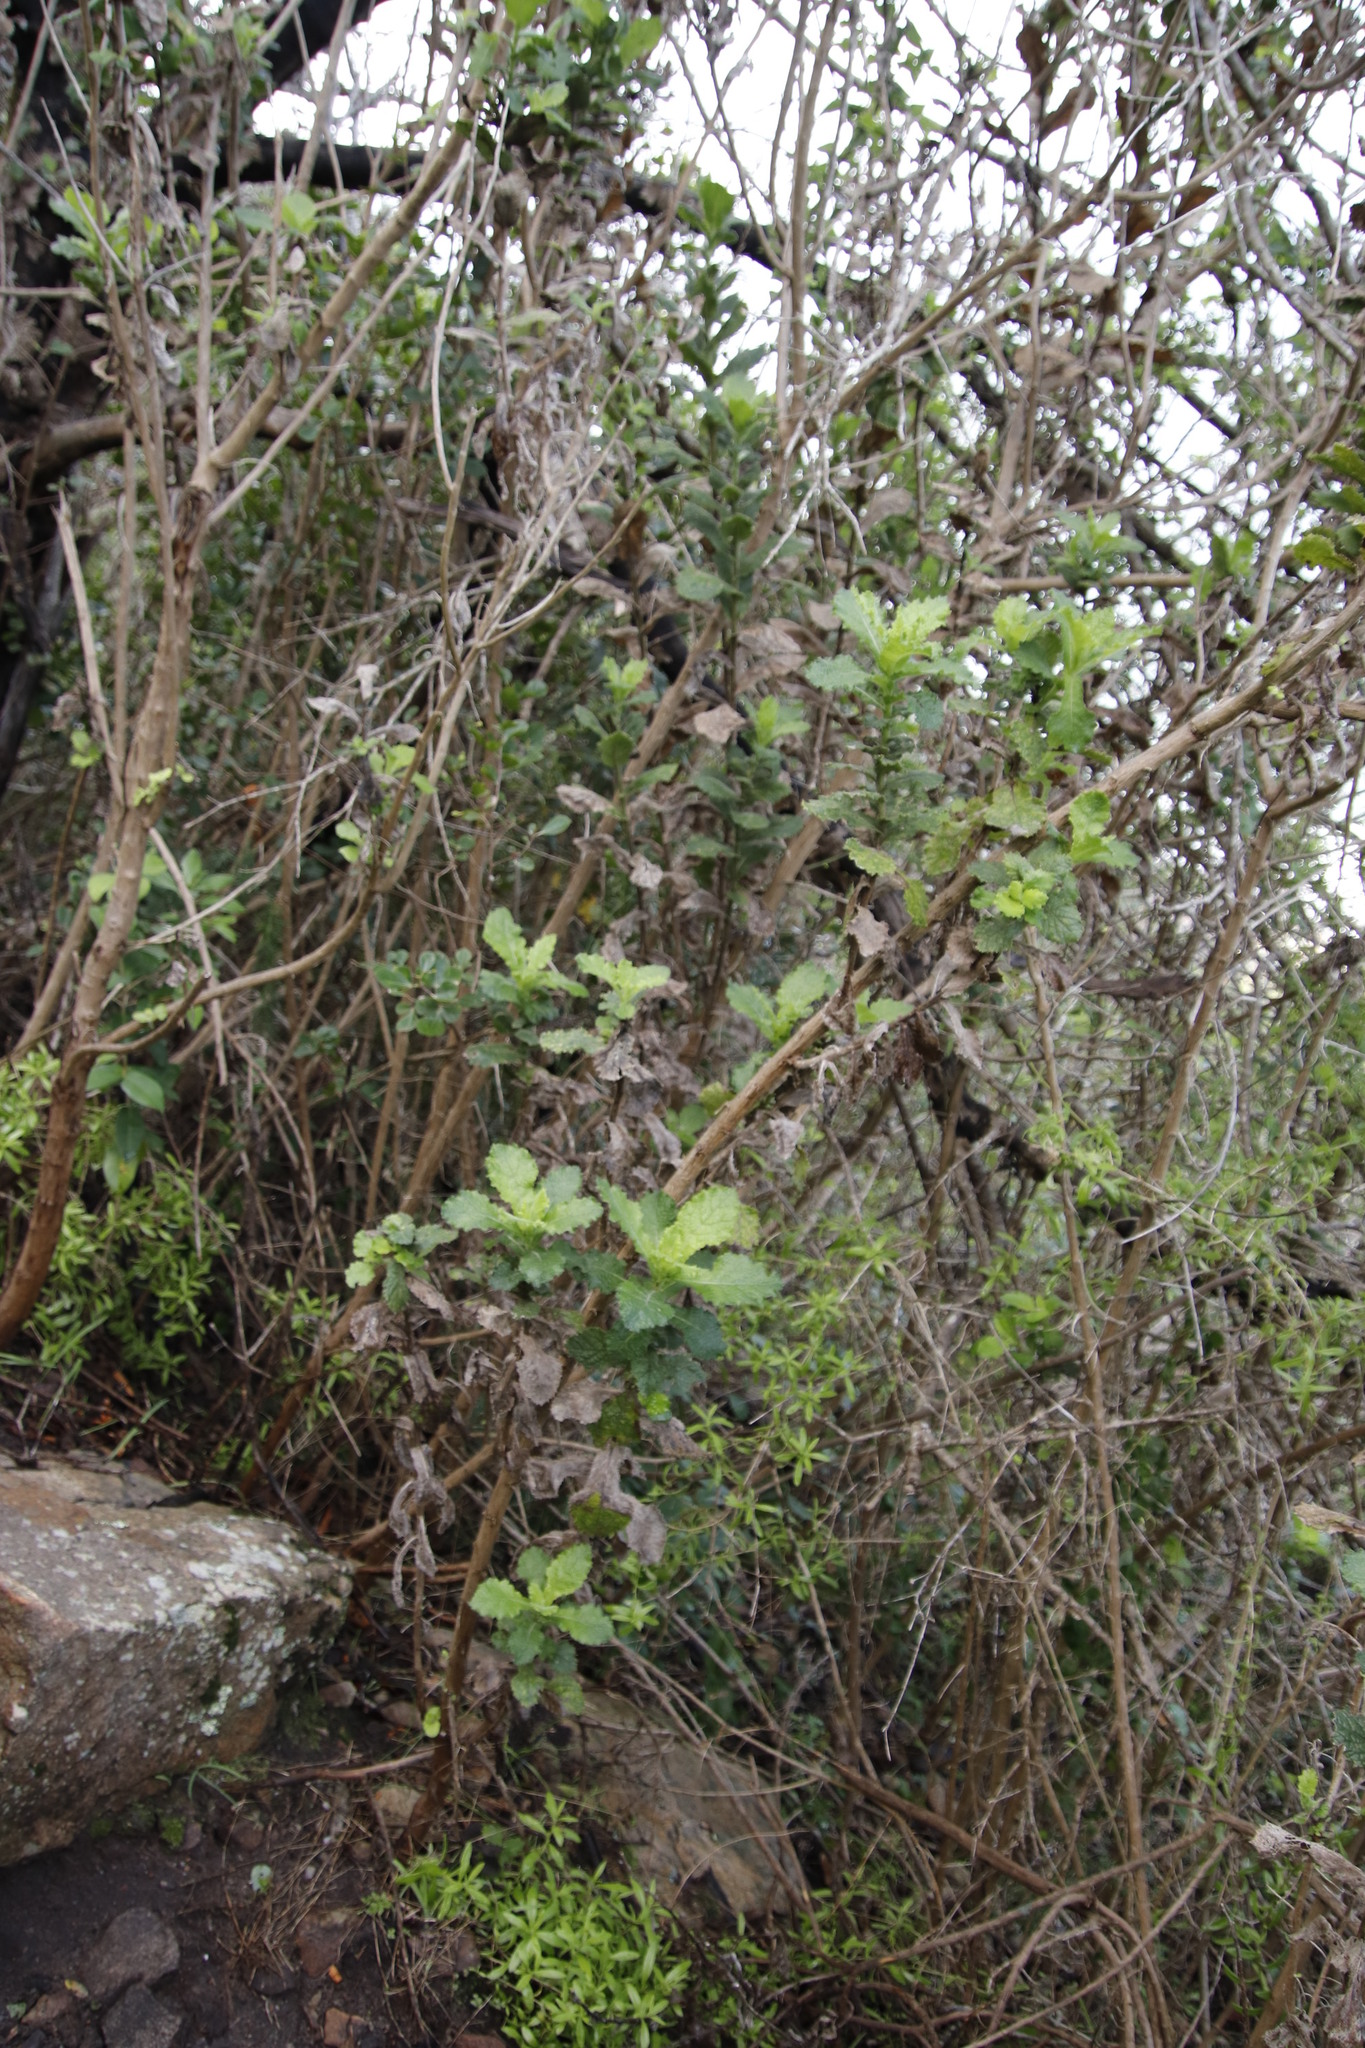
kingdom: Plantae
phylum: Tracheophyta
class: Magnoliopsida
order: Asterales
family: Asteraceae
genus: Senecio
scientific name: Senecio rigidus
